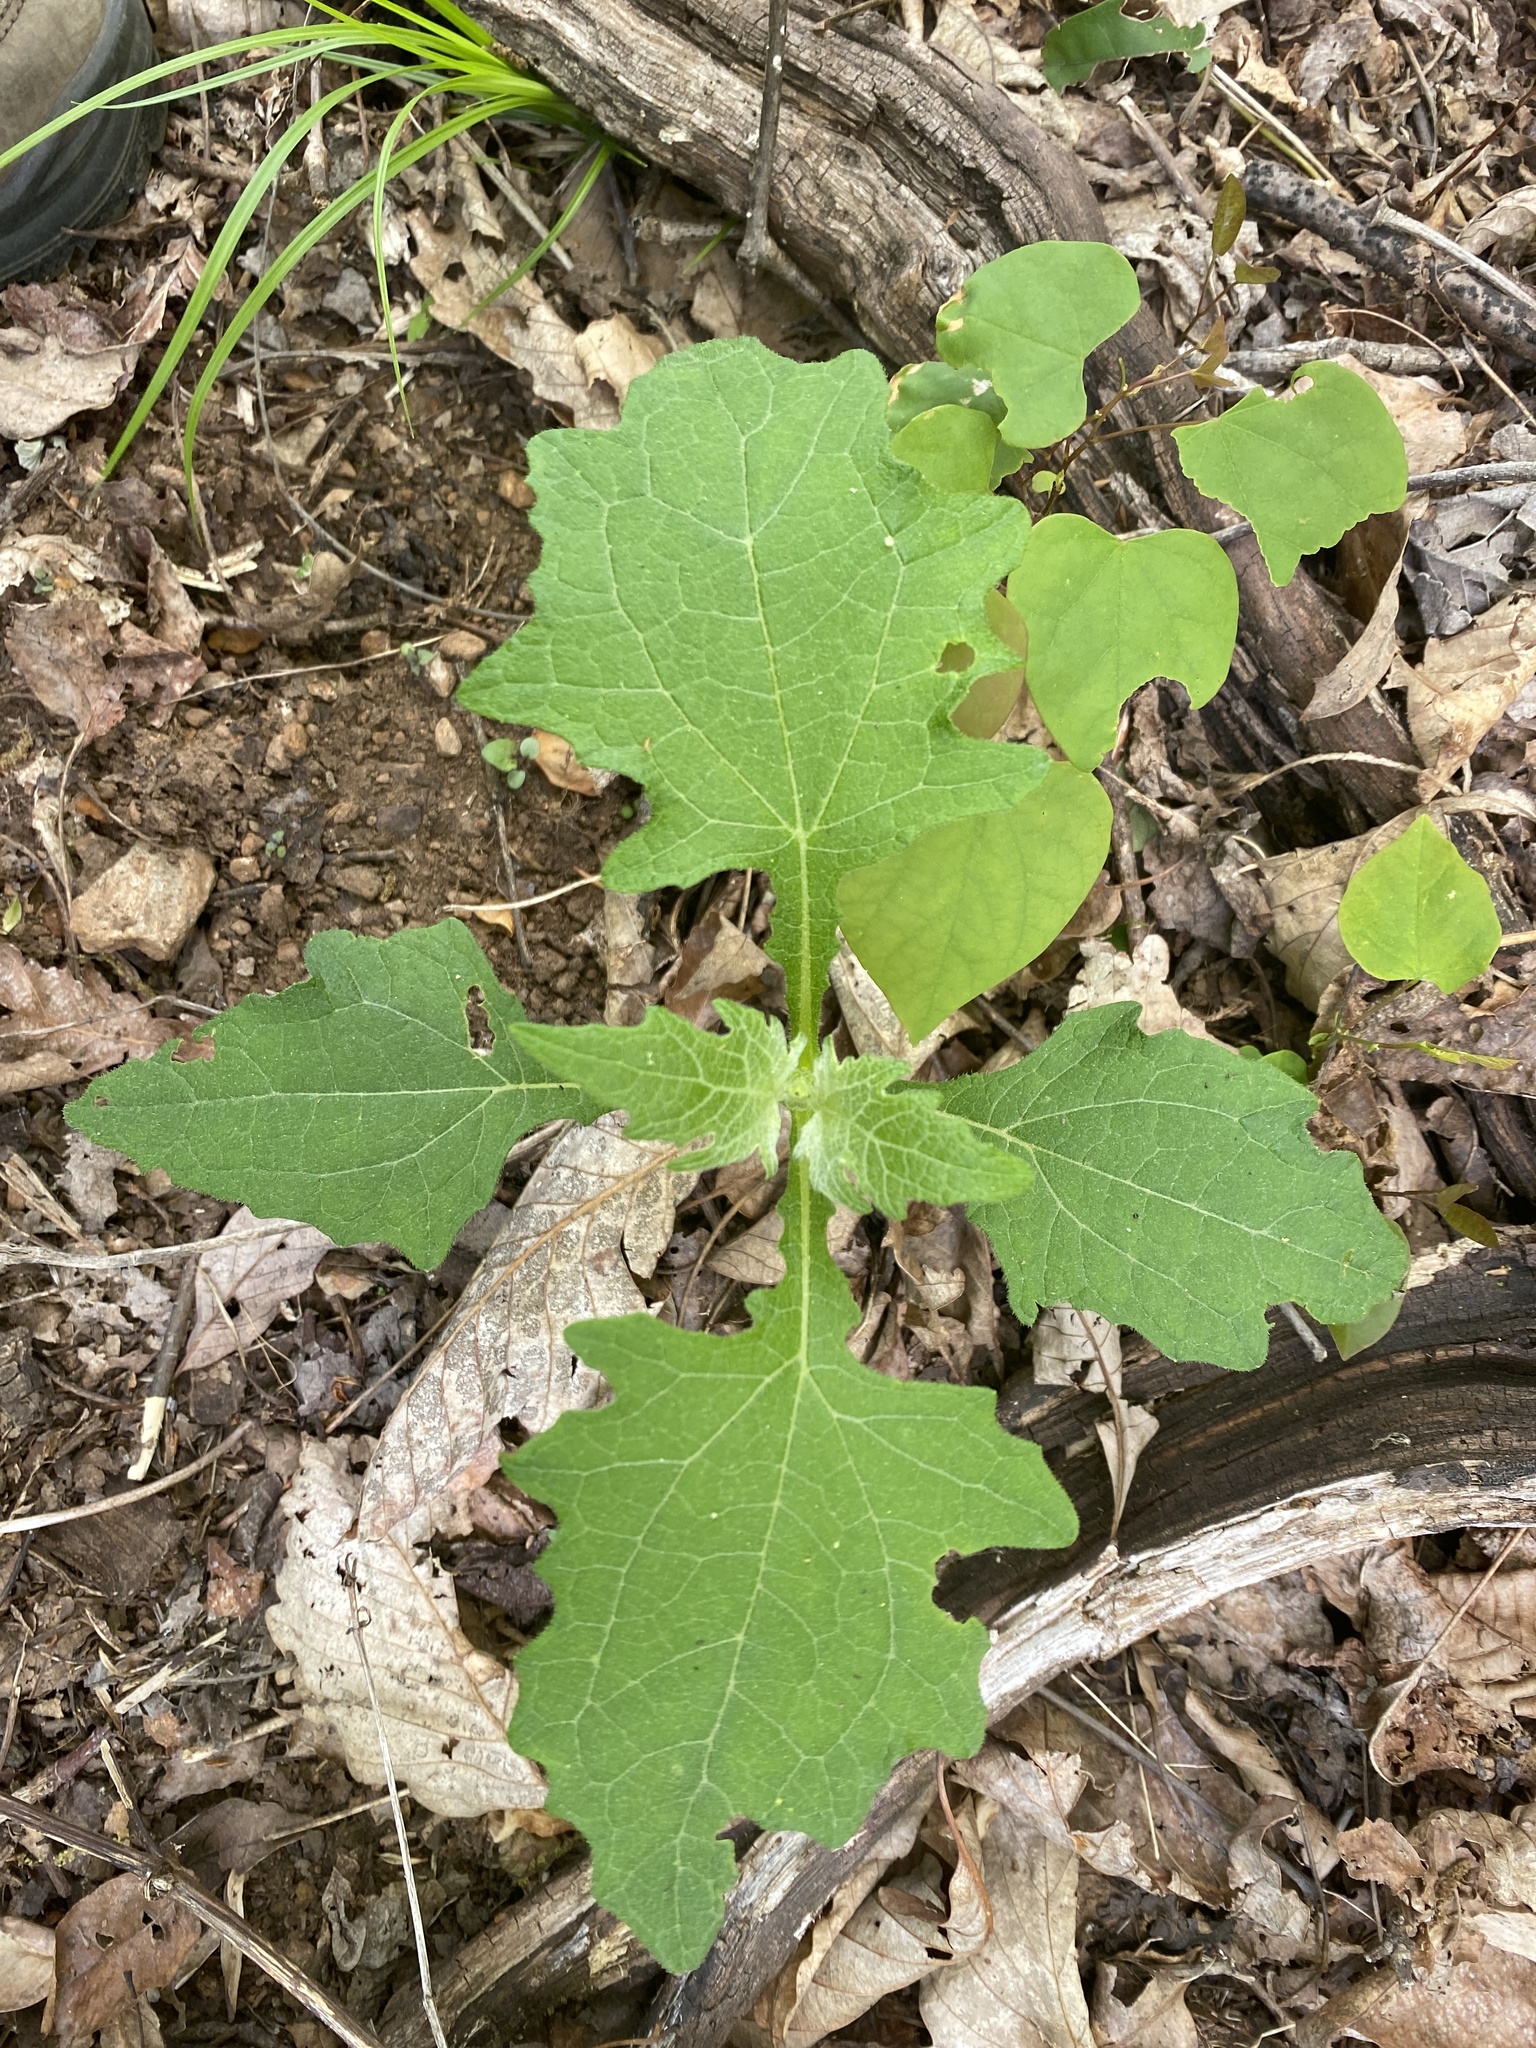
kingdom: Plantae
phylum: Tracheophyta
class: Magnoliopsida
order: Asterales
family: Asteraceae
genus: Smallanthus
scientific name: Smallanthus uvedalia
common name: Bear's-foot
